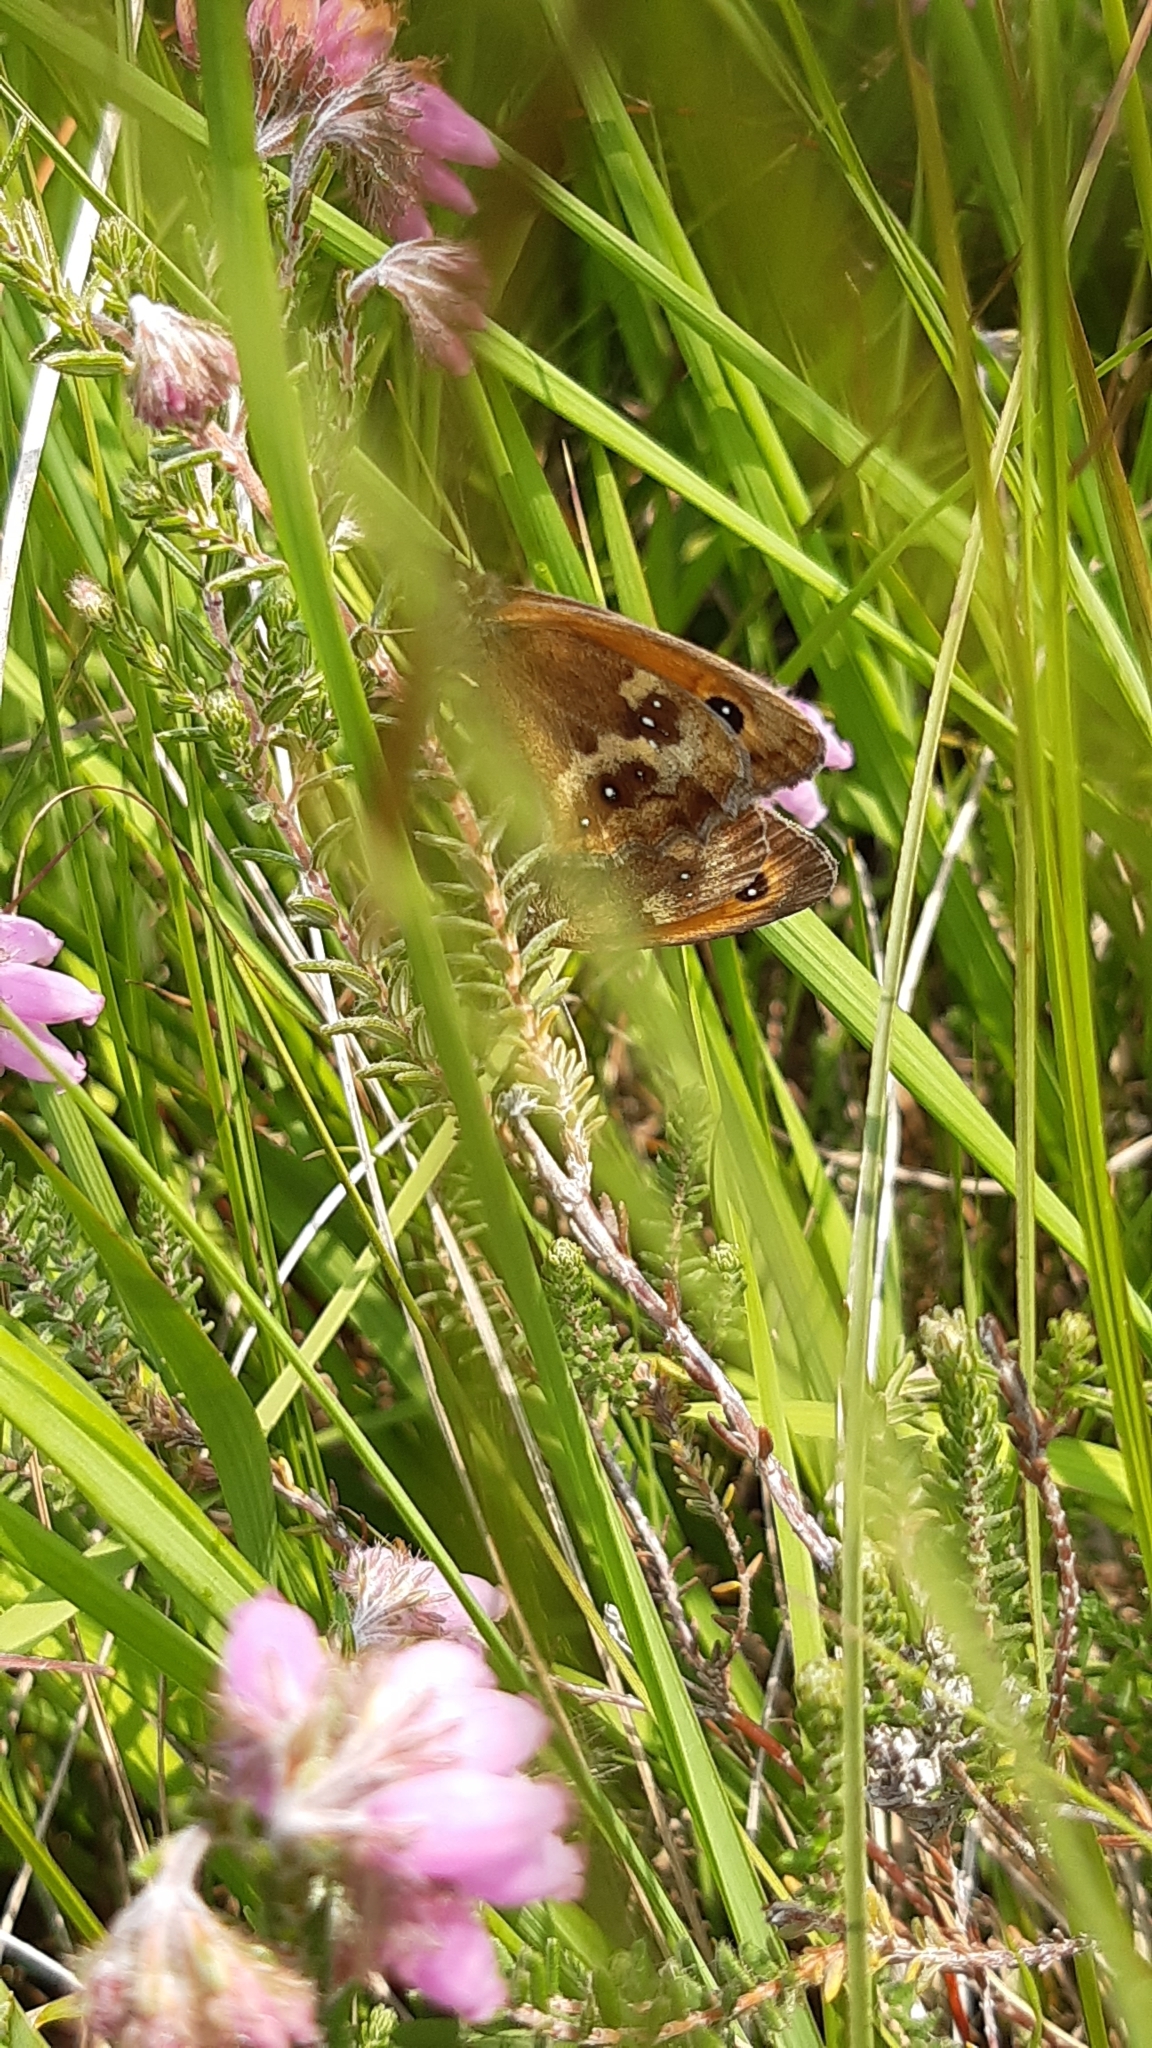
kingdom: Animalia
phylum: Arthropoda
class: Insecta
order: Lepidoptera
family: Nymphalidae
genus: Pyronia
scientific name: Pyronia tithonus
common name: Gatekeeper
